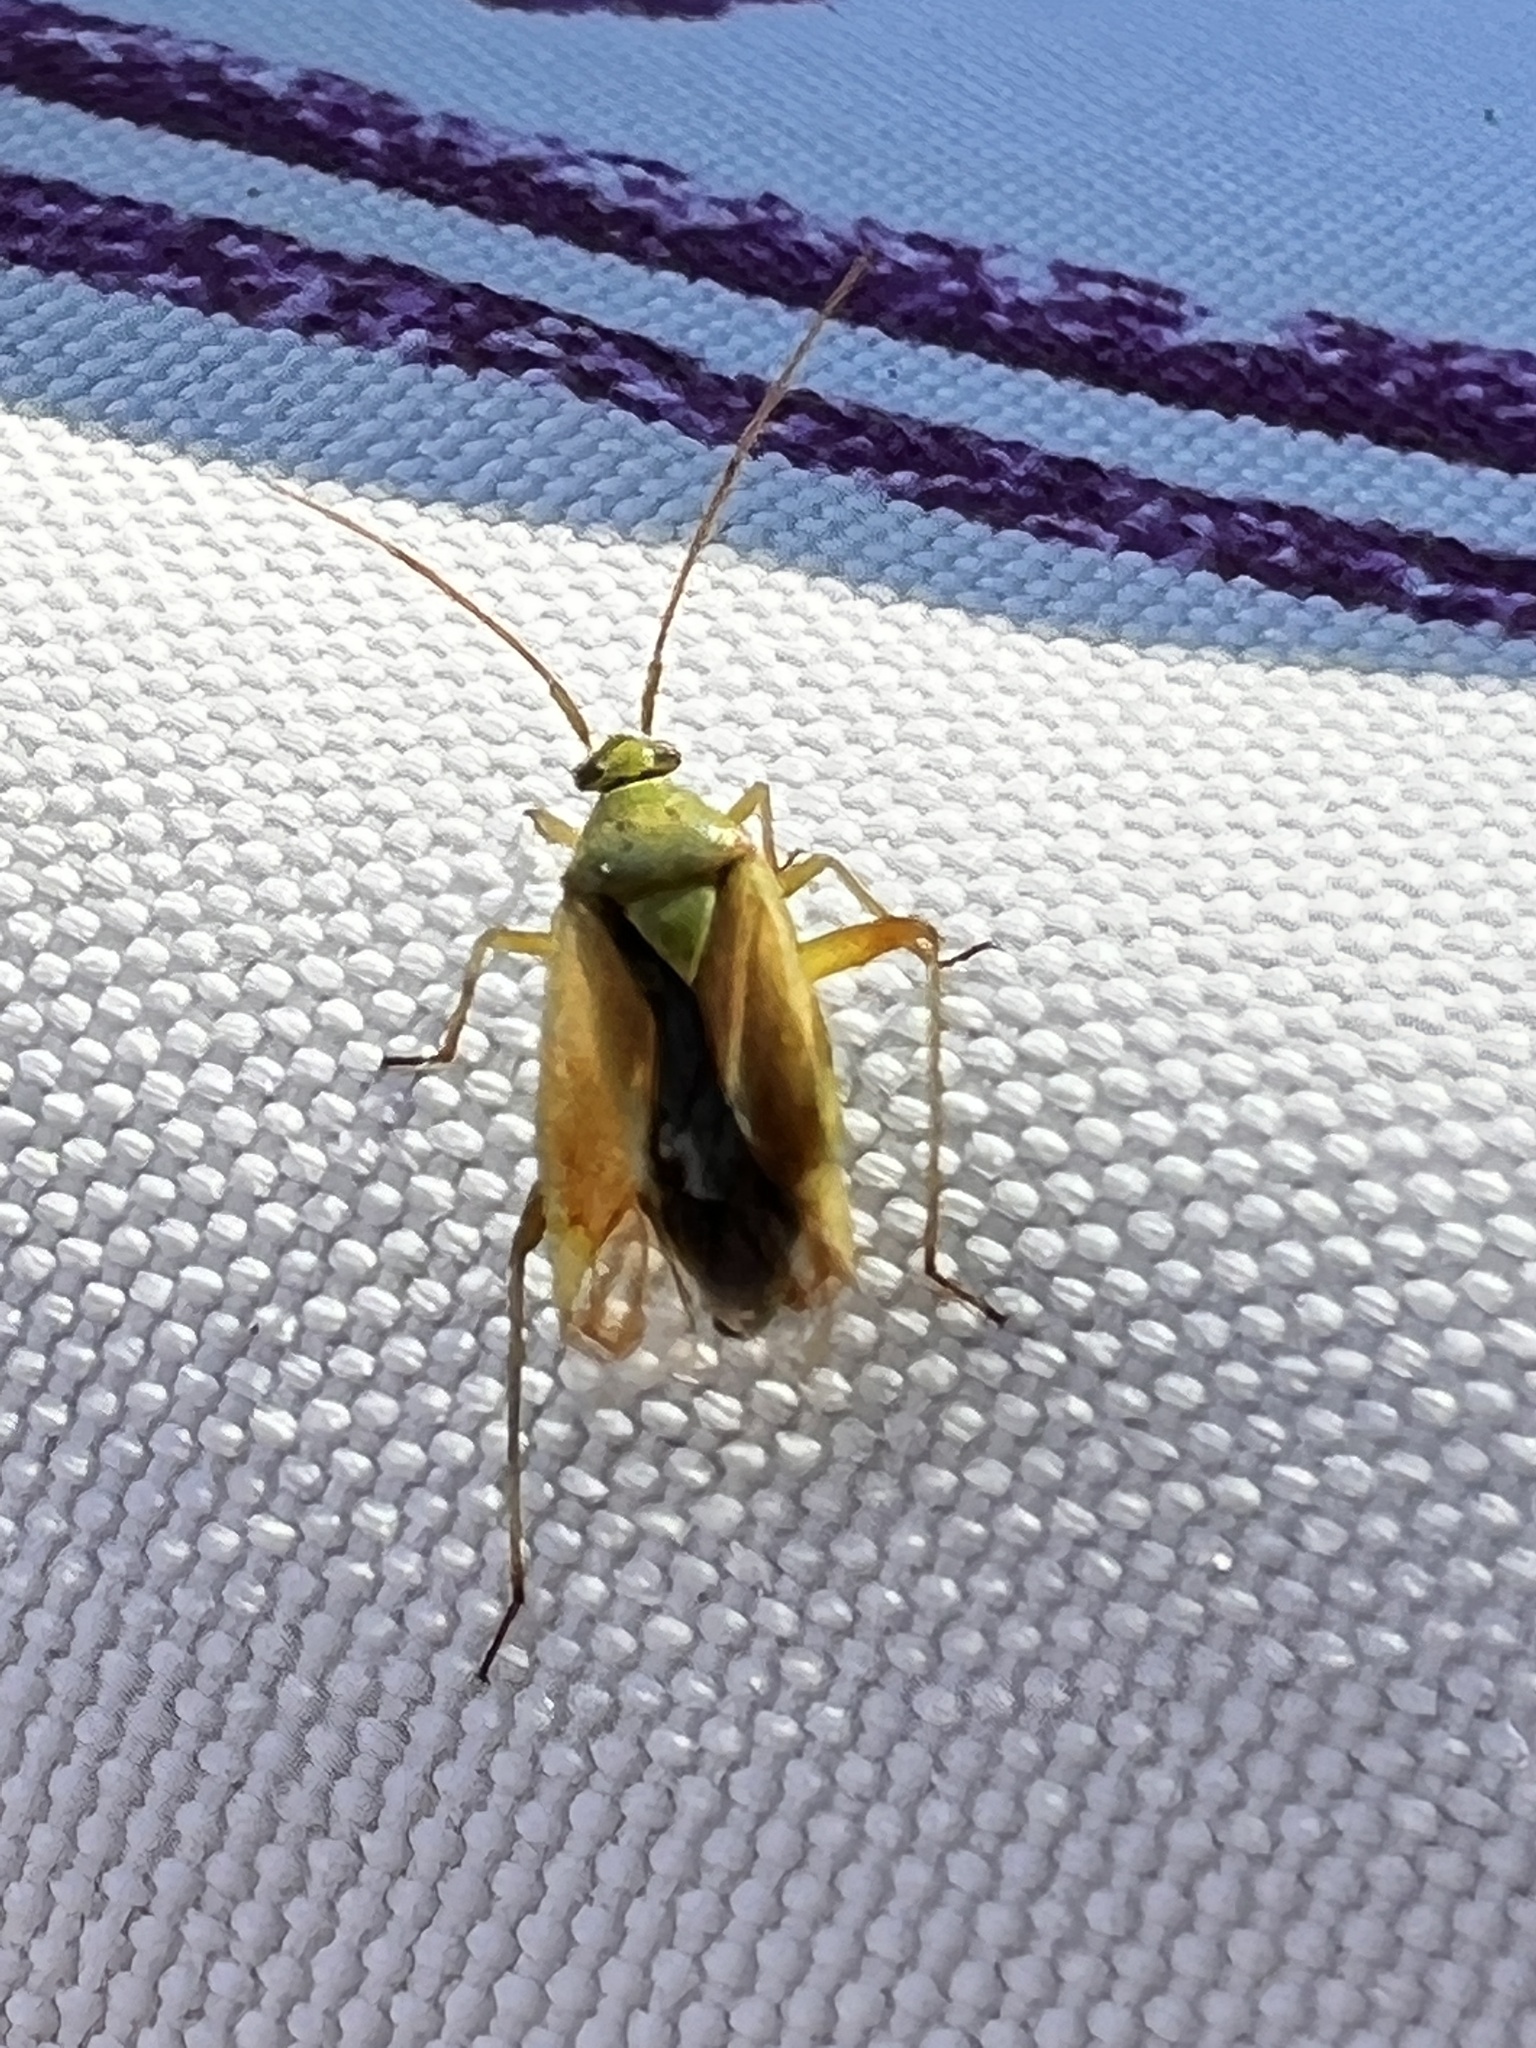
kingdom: Animalia
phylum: Arthropoda
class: Insecta
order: Hemiptera
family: Miridae
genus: Closterotomus
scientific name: Closterotomus norvegicus
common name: Plant bug
